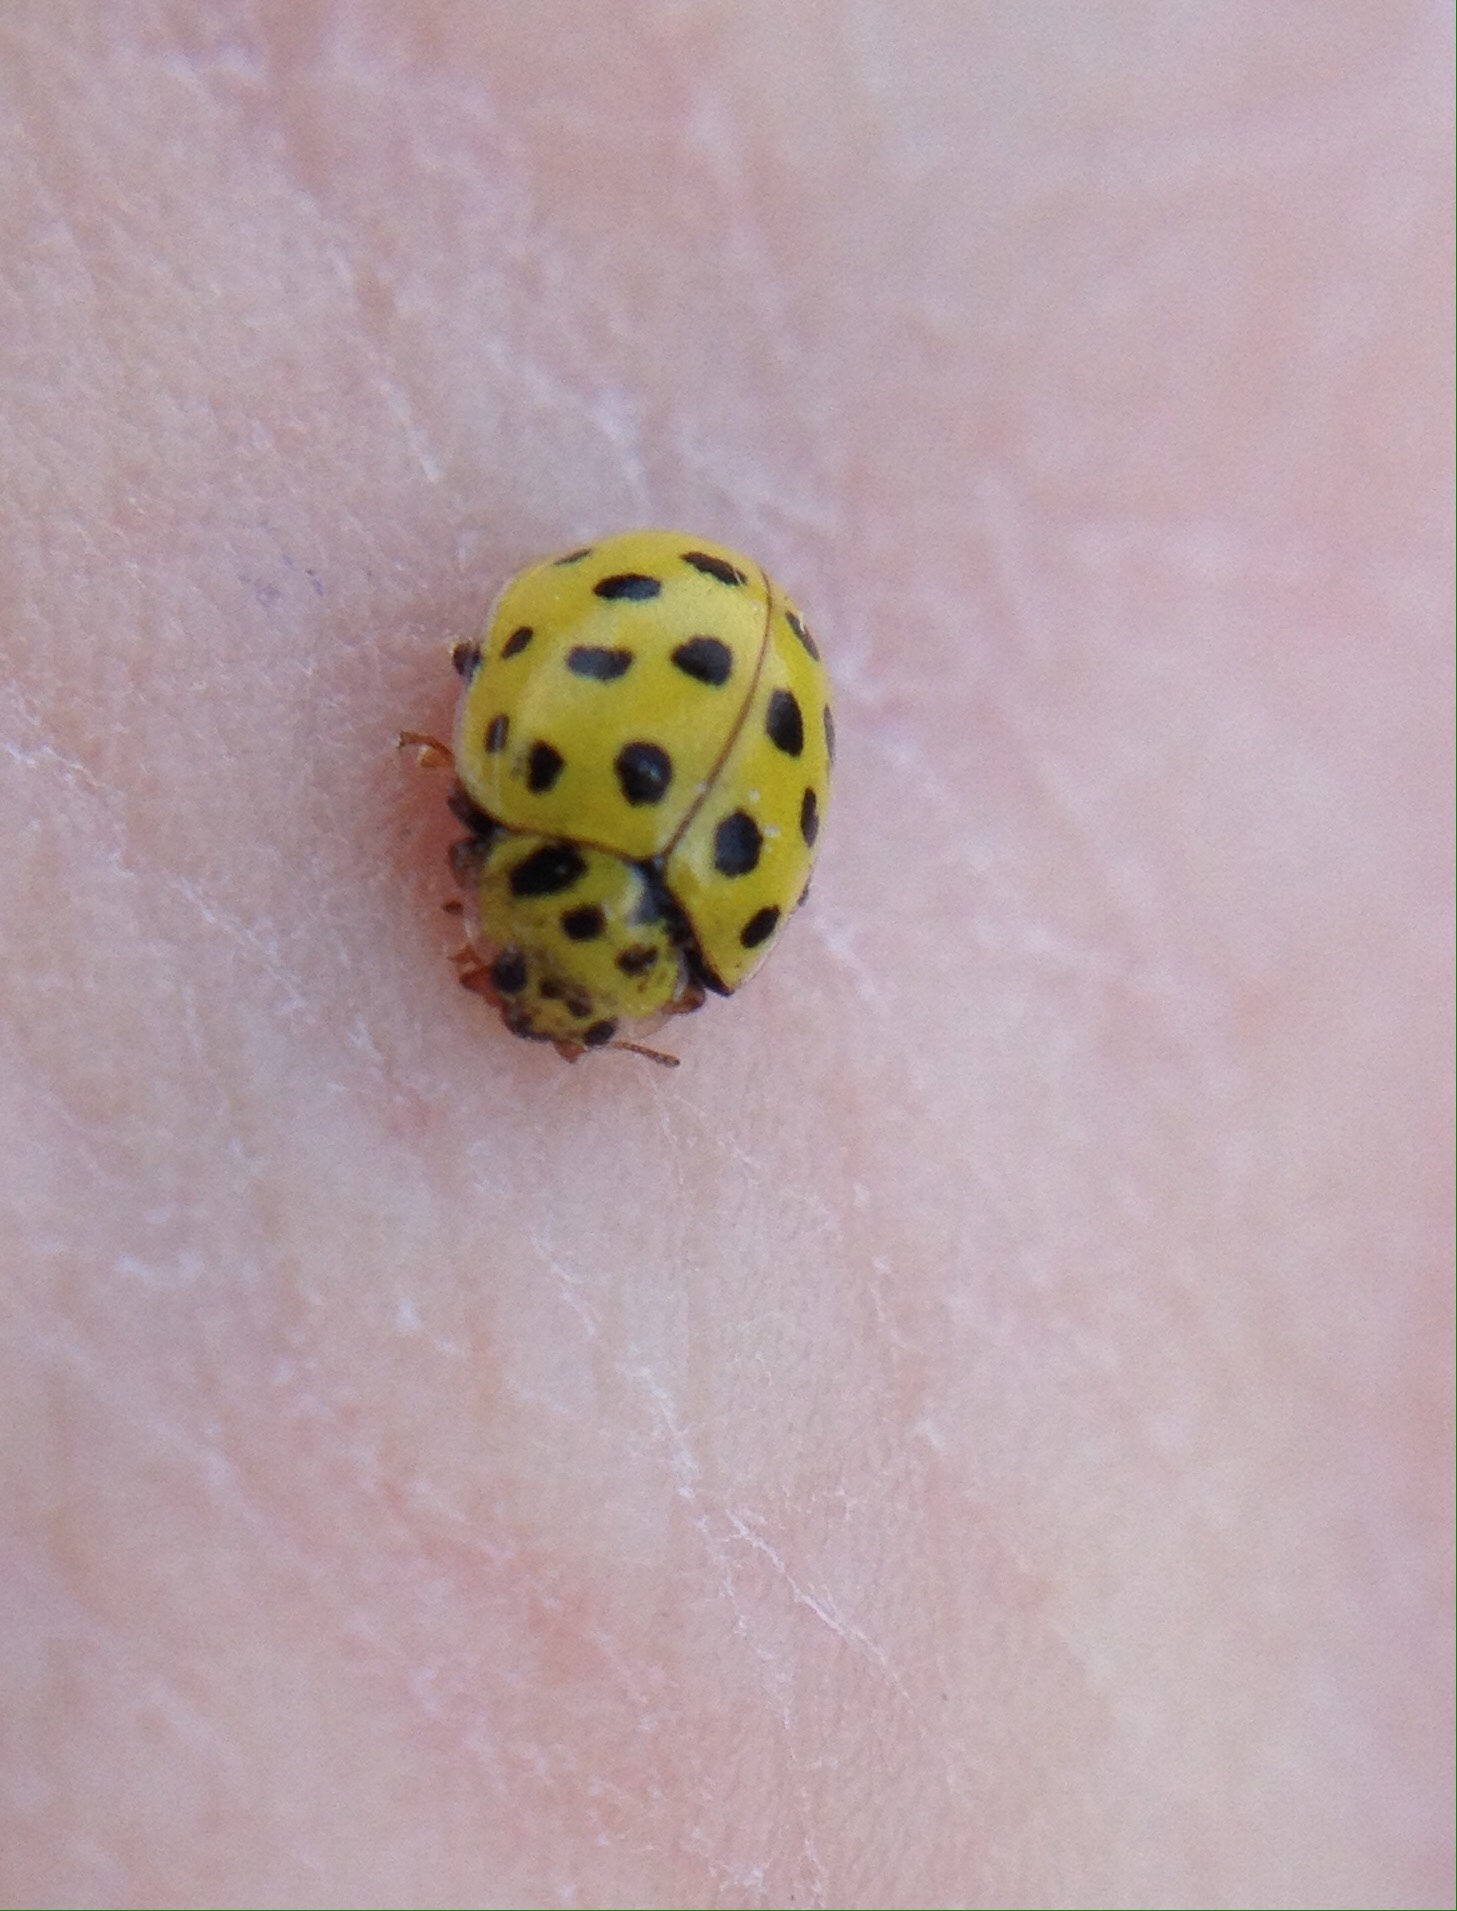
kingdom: Animalia
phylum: Arthropoda
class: Insecta
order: Coleoptera
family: Coccinellidae
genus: Psyllobora
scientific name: Psyllobora vigintiduopunctata
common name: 22-spot ladybird
